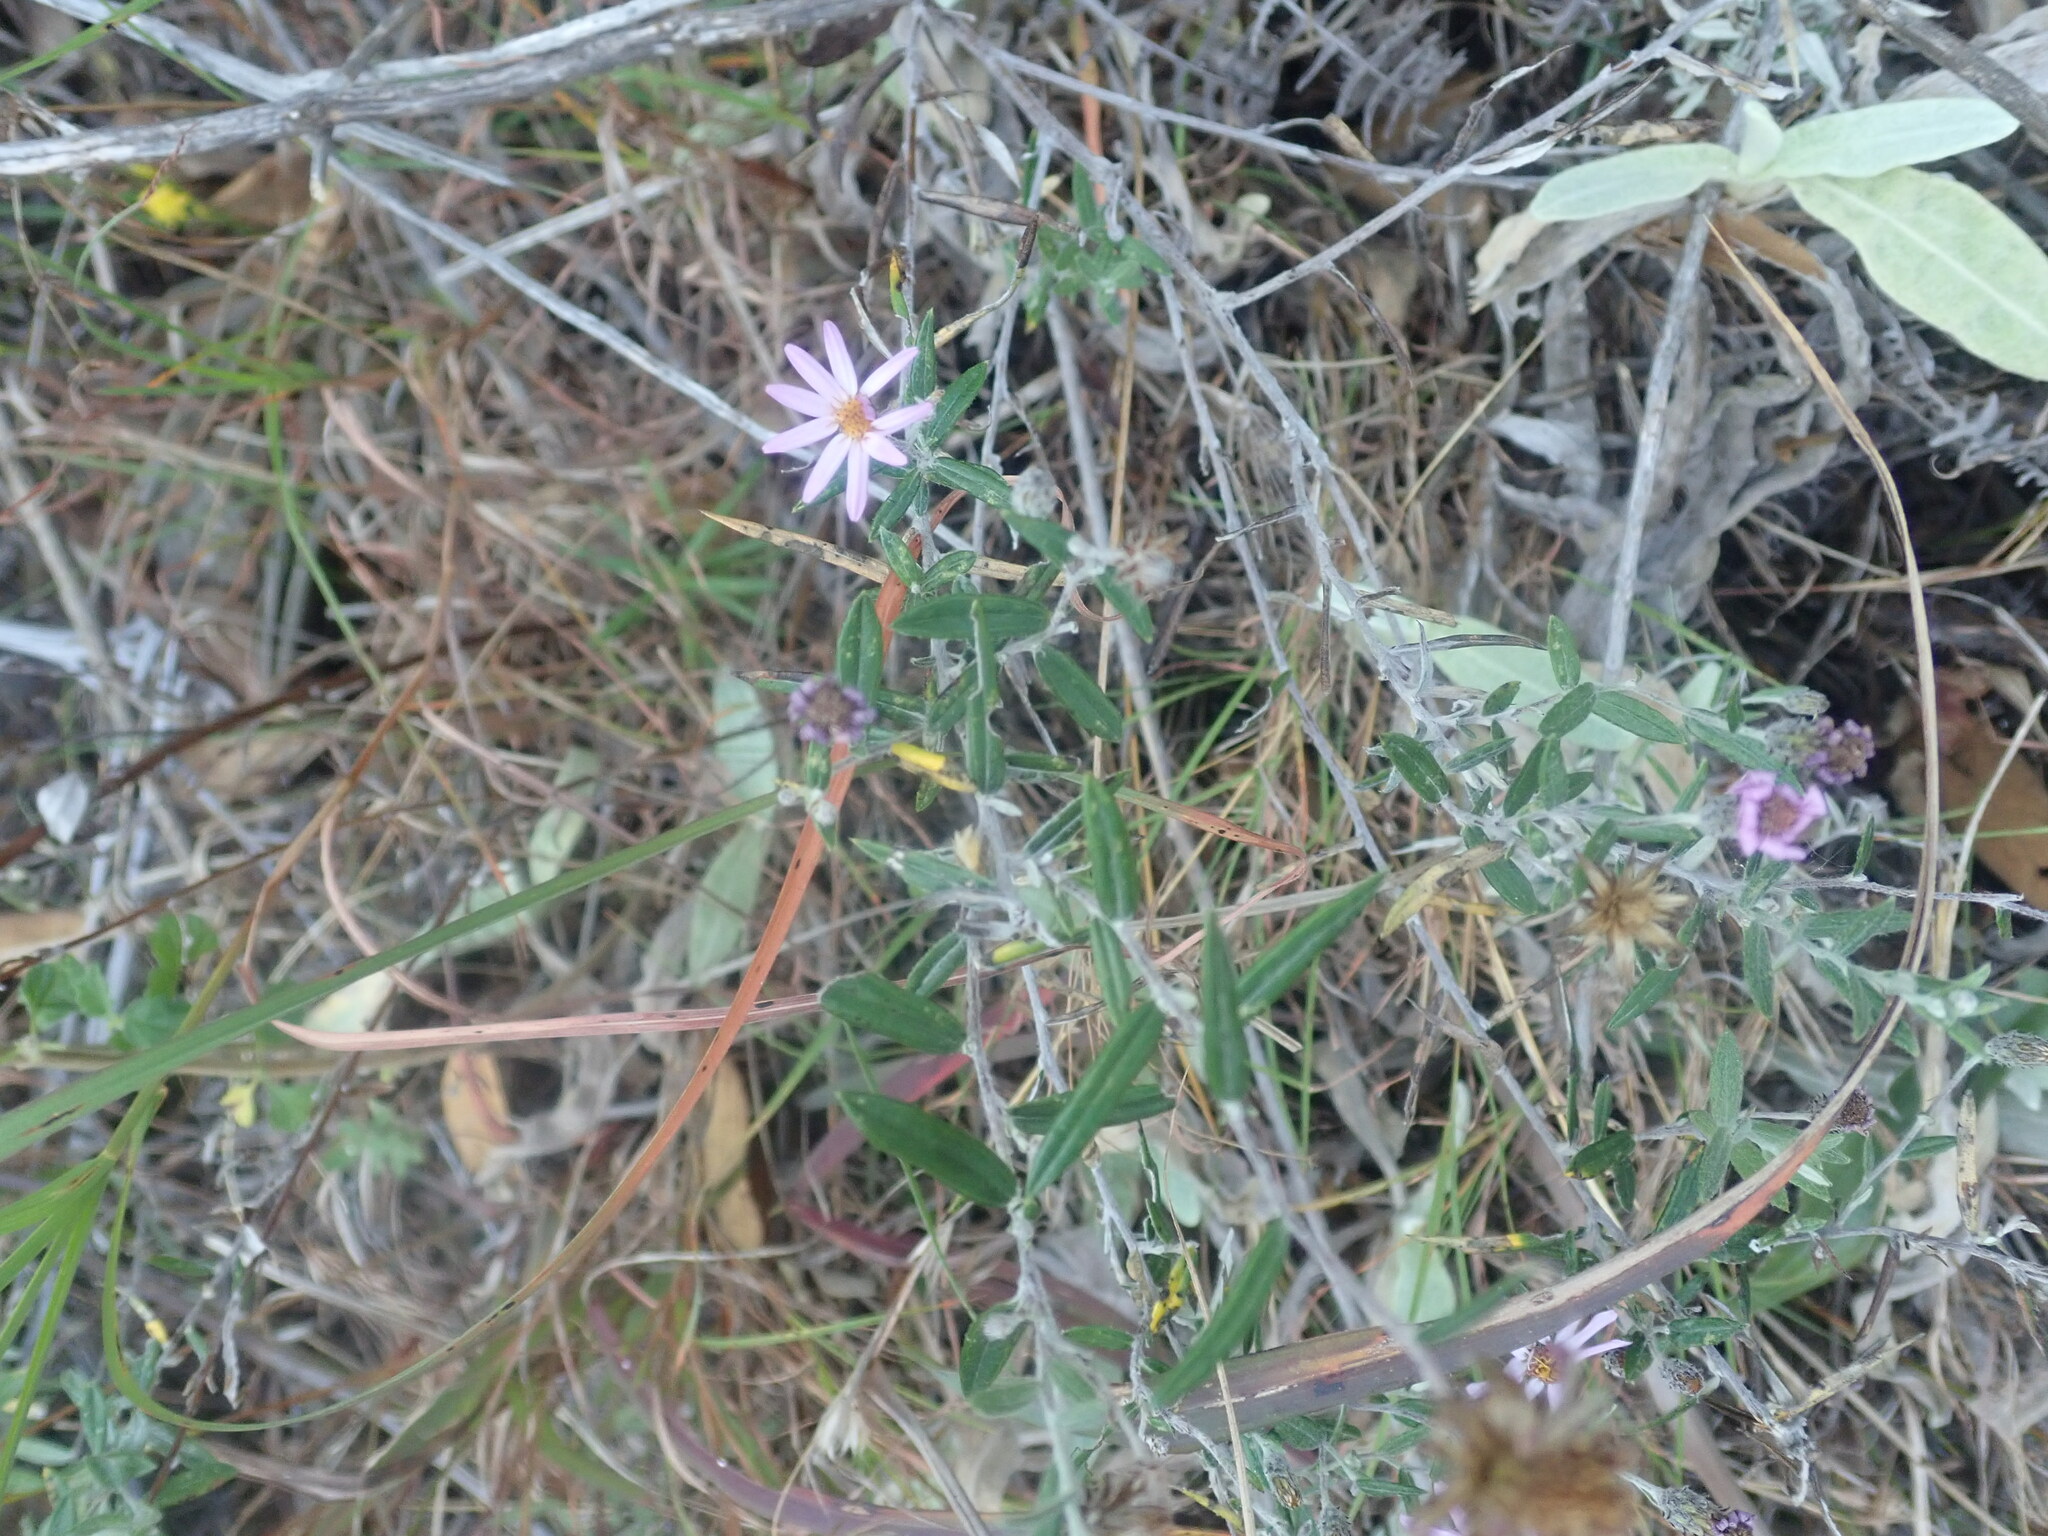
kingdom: Plantae
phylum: Tracheophyta
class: Magnoliopsida
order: Asterales
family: Asteraceae
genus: Athrixia
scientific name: Athrixia phylicoides
